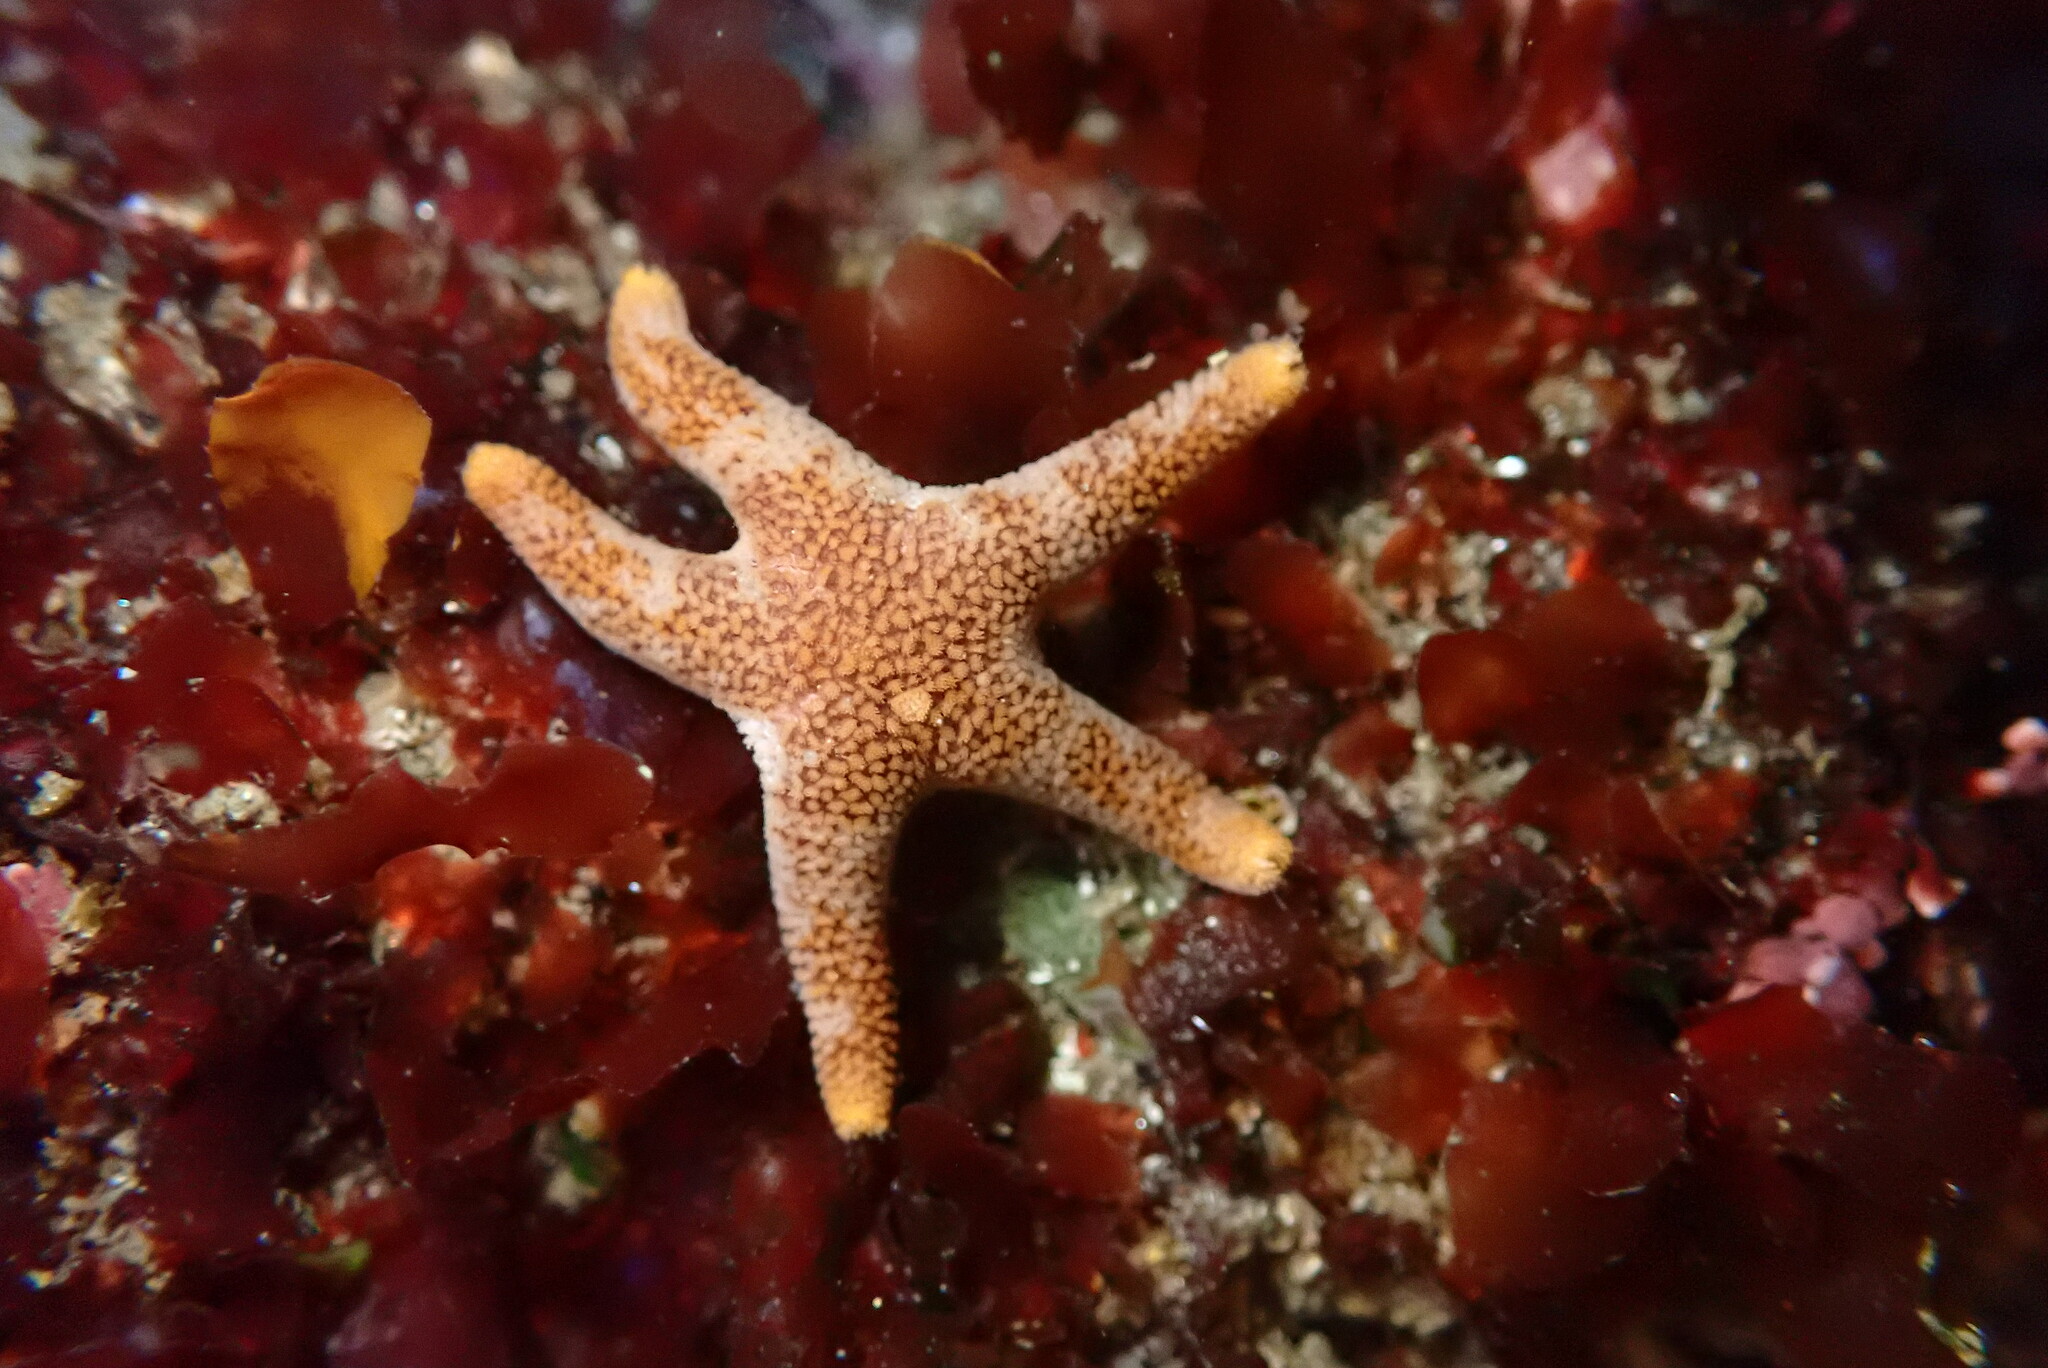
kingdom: Animalia
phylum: Echinodermata
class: Asteroidea
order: Spinulosida
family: Echinasteridae
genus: Henricia
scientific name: Henricia pumila
